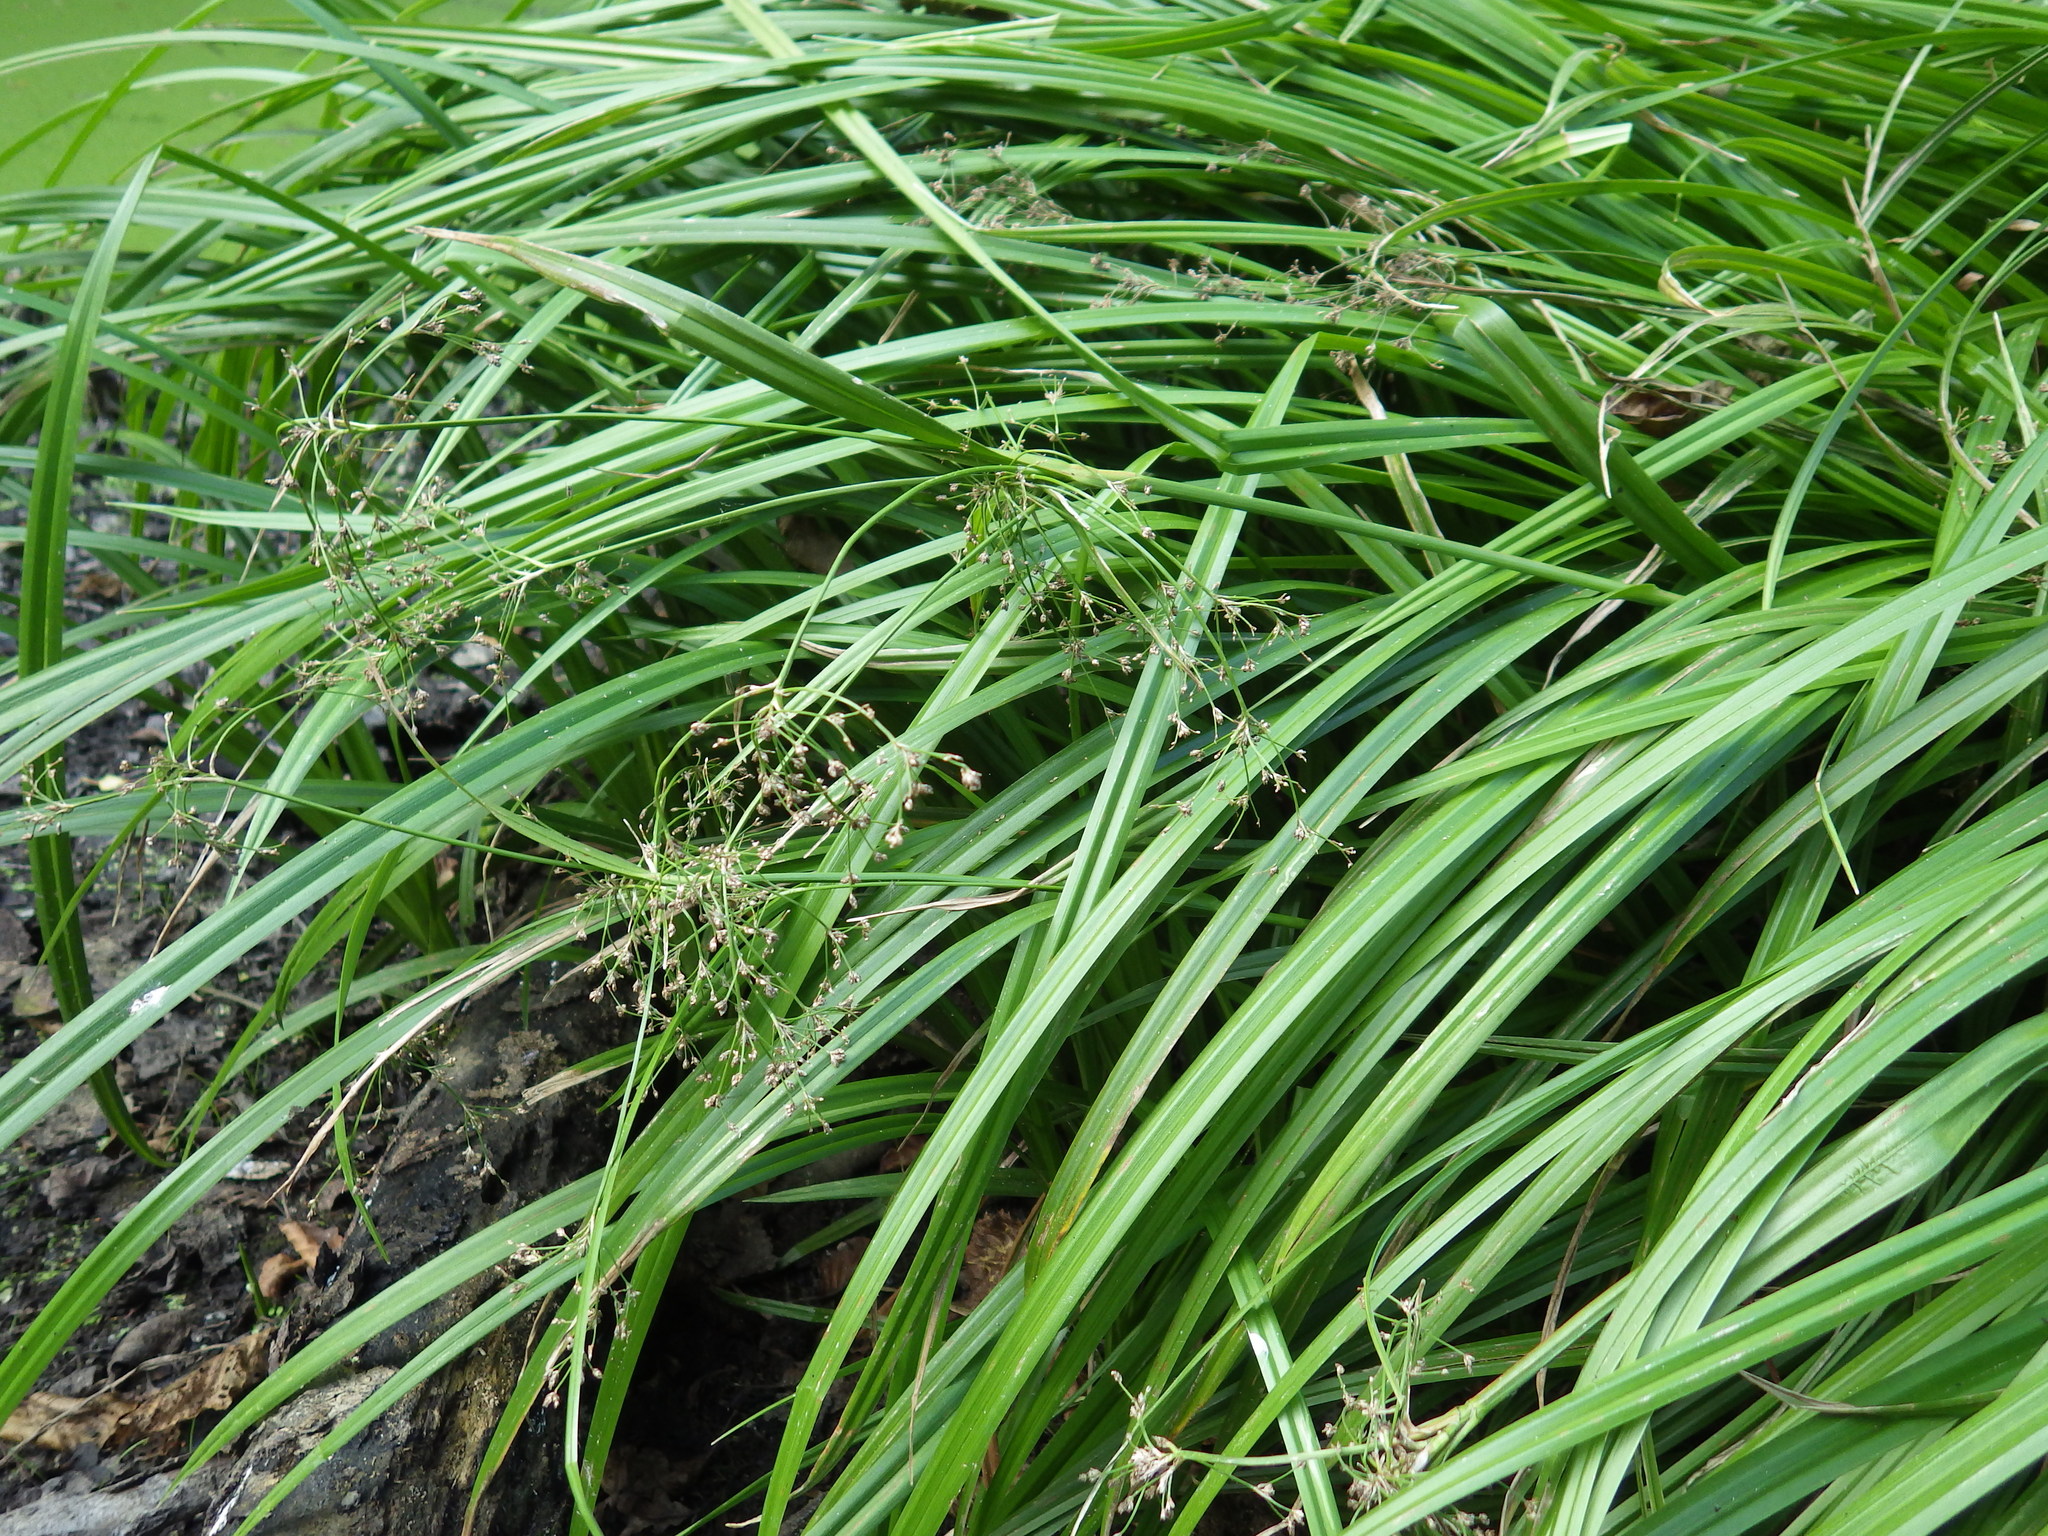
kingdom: Plantae
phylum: Tracheophyta
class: Liliopsida
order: Poales
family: Cyperaceae
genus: Scirpus
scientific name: Scirpus sylvaticus
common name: Wood club-rush
